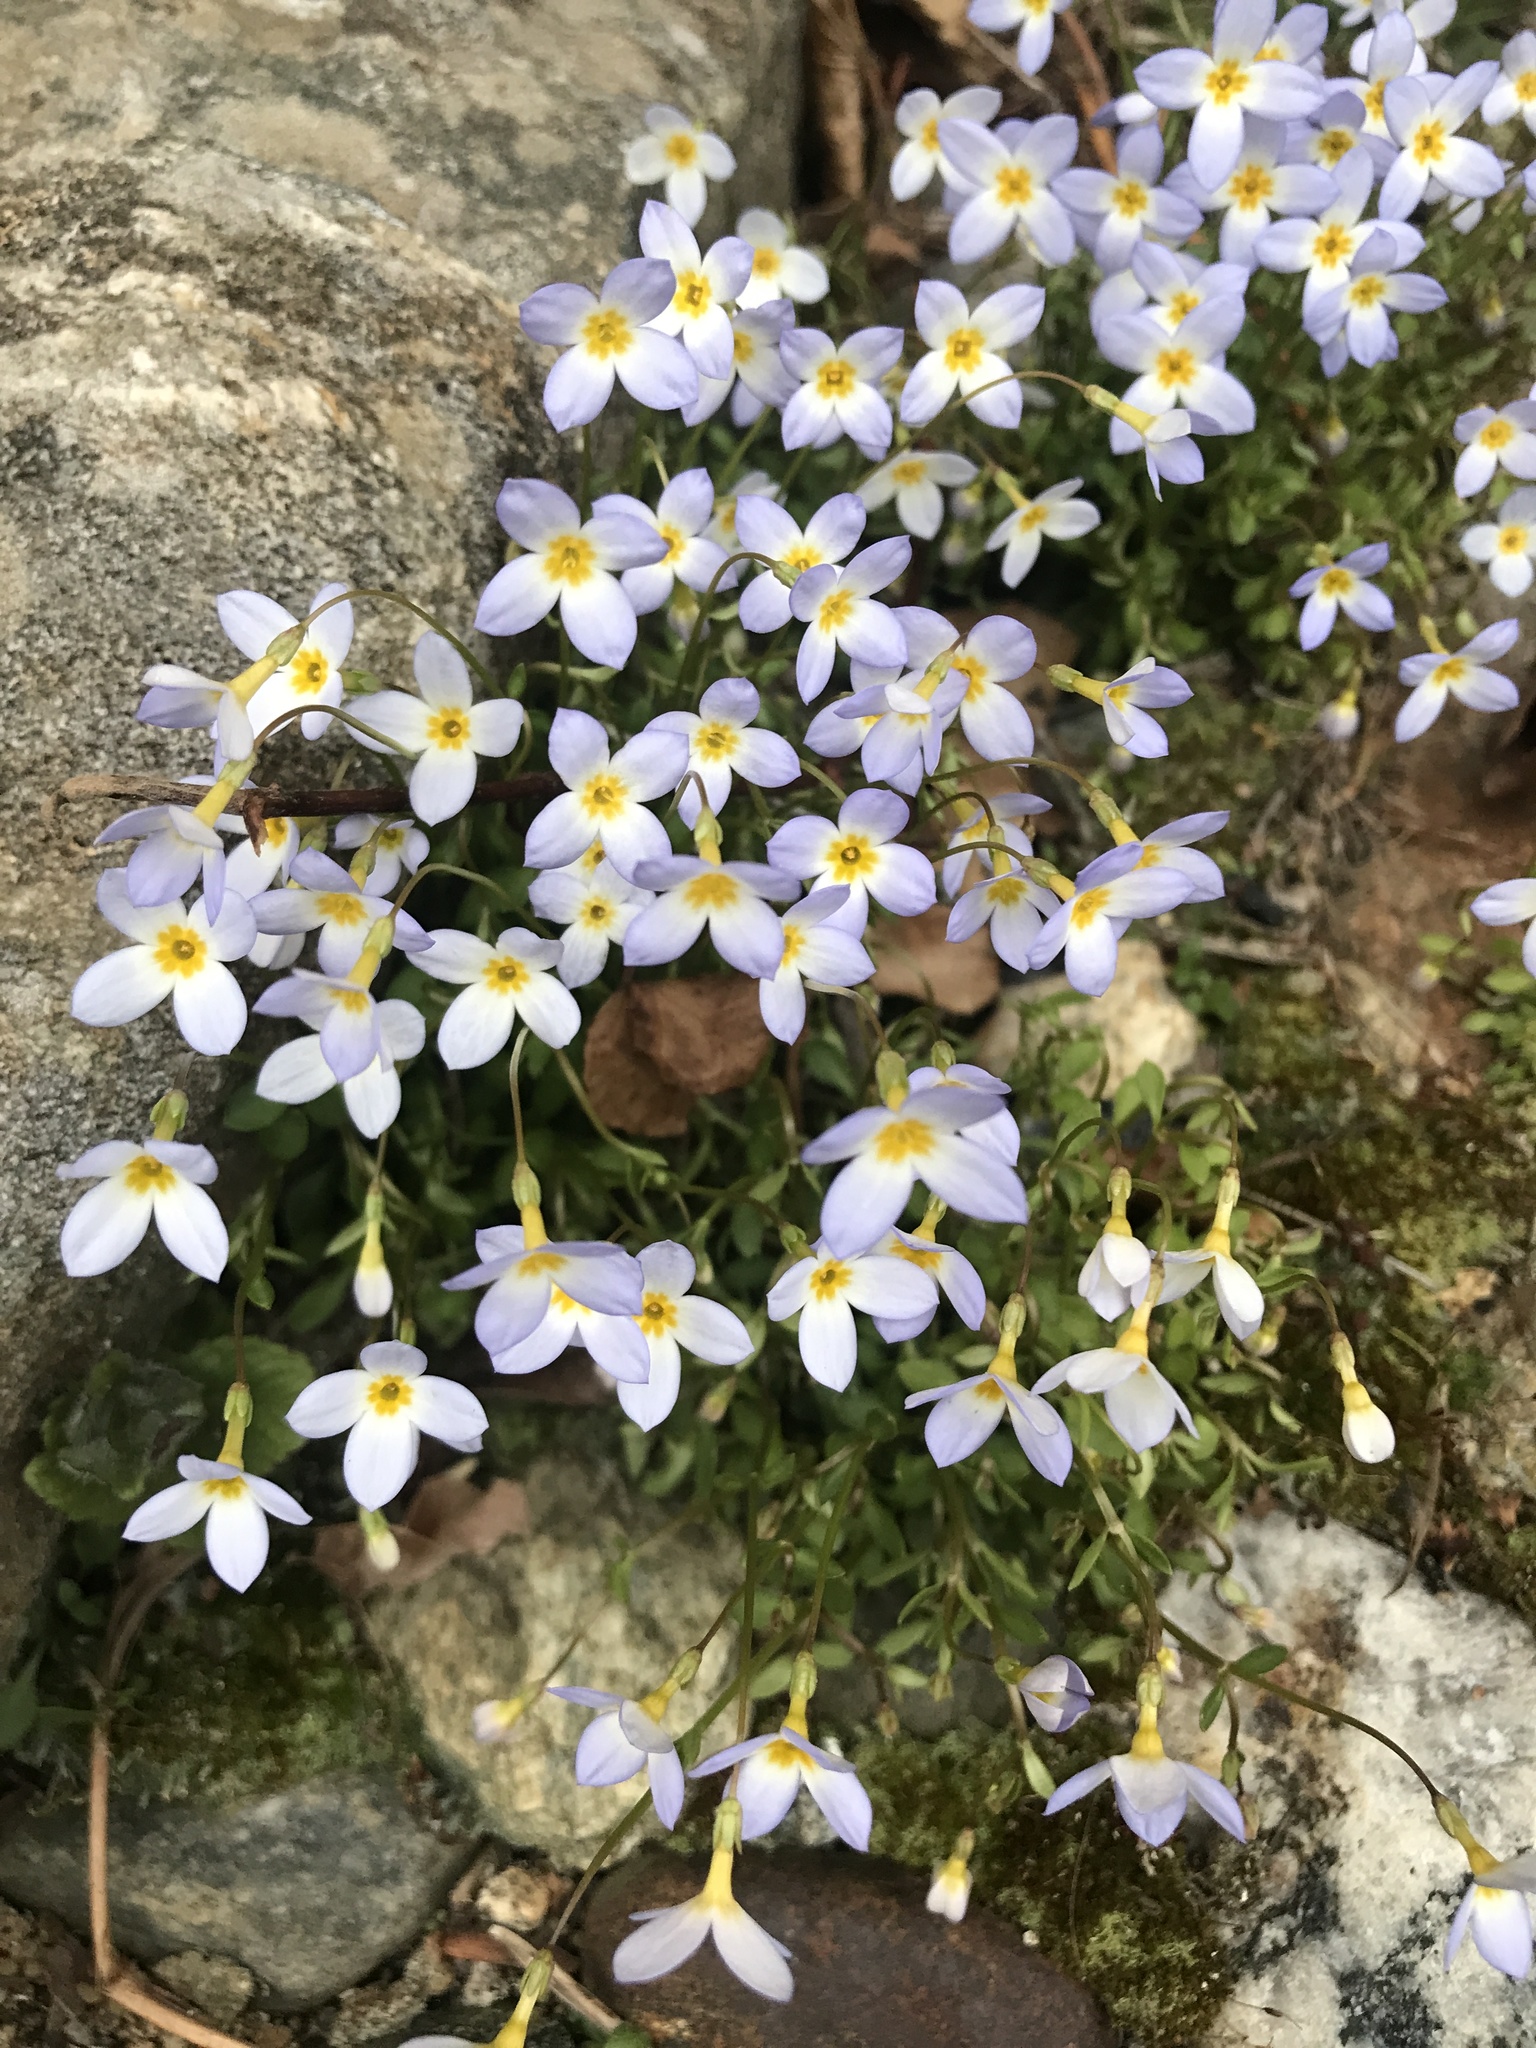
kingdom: Plantae
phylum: Tracheophyta
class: Magnoliopsida
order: Gentianales
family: Rubiaceae
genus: Houstonia
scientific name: Houstonia caerulea
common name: Bluets
